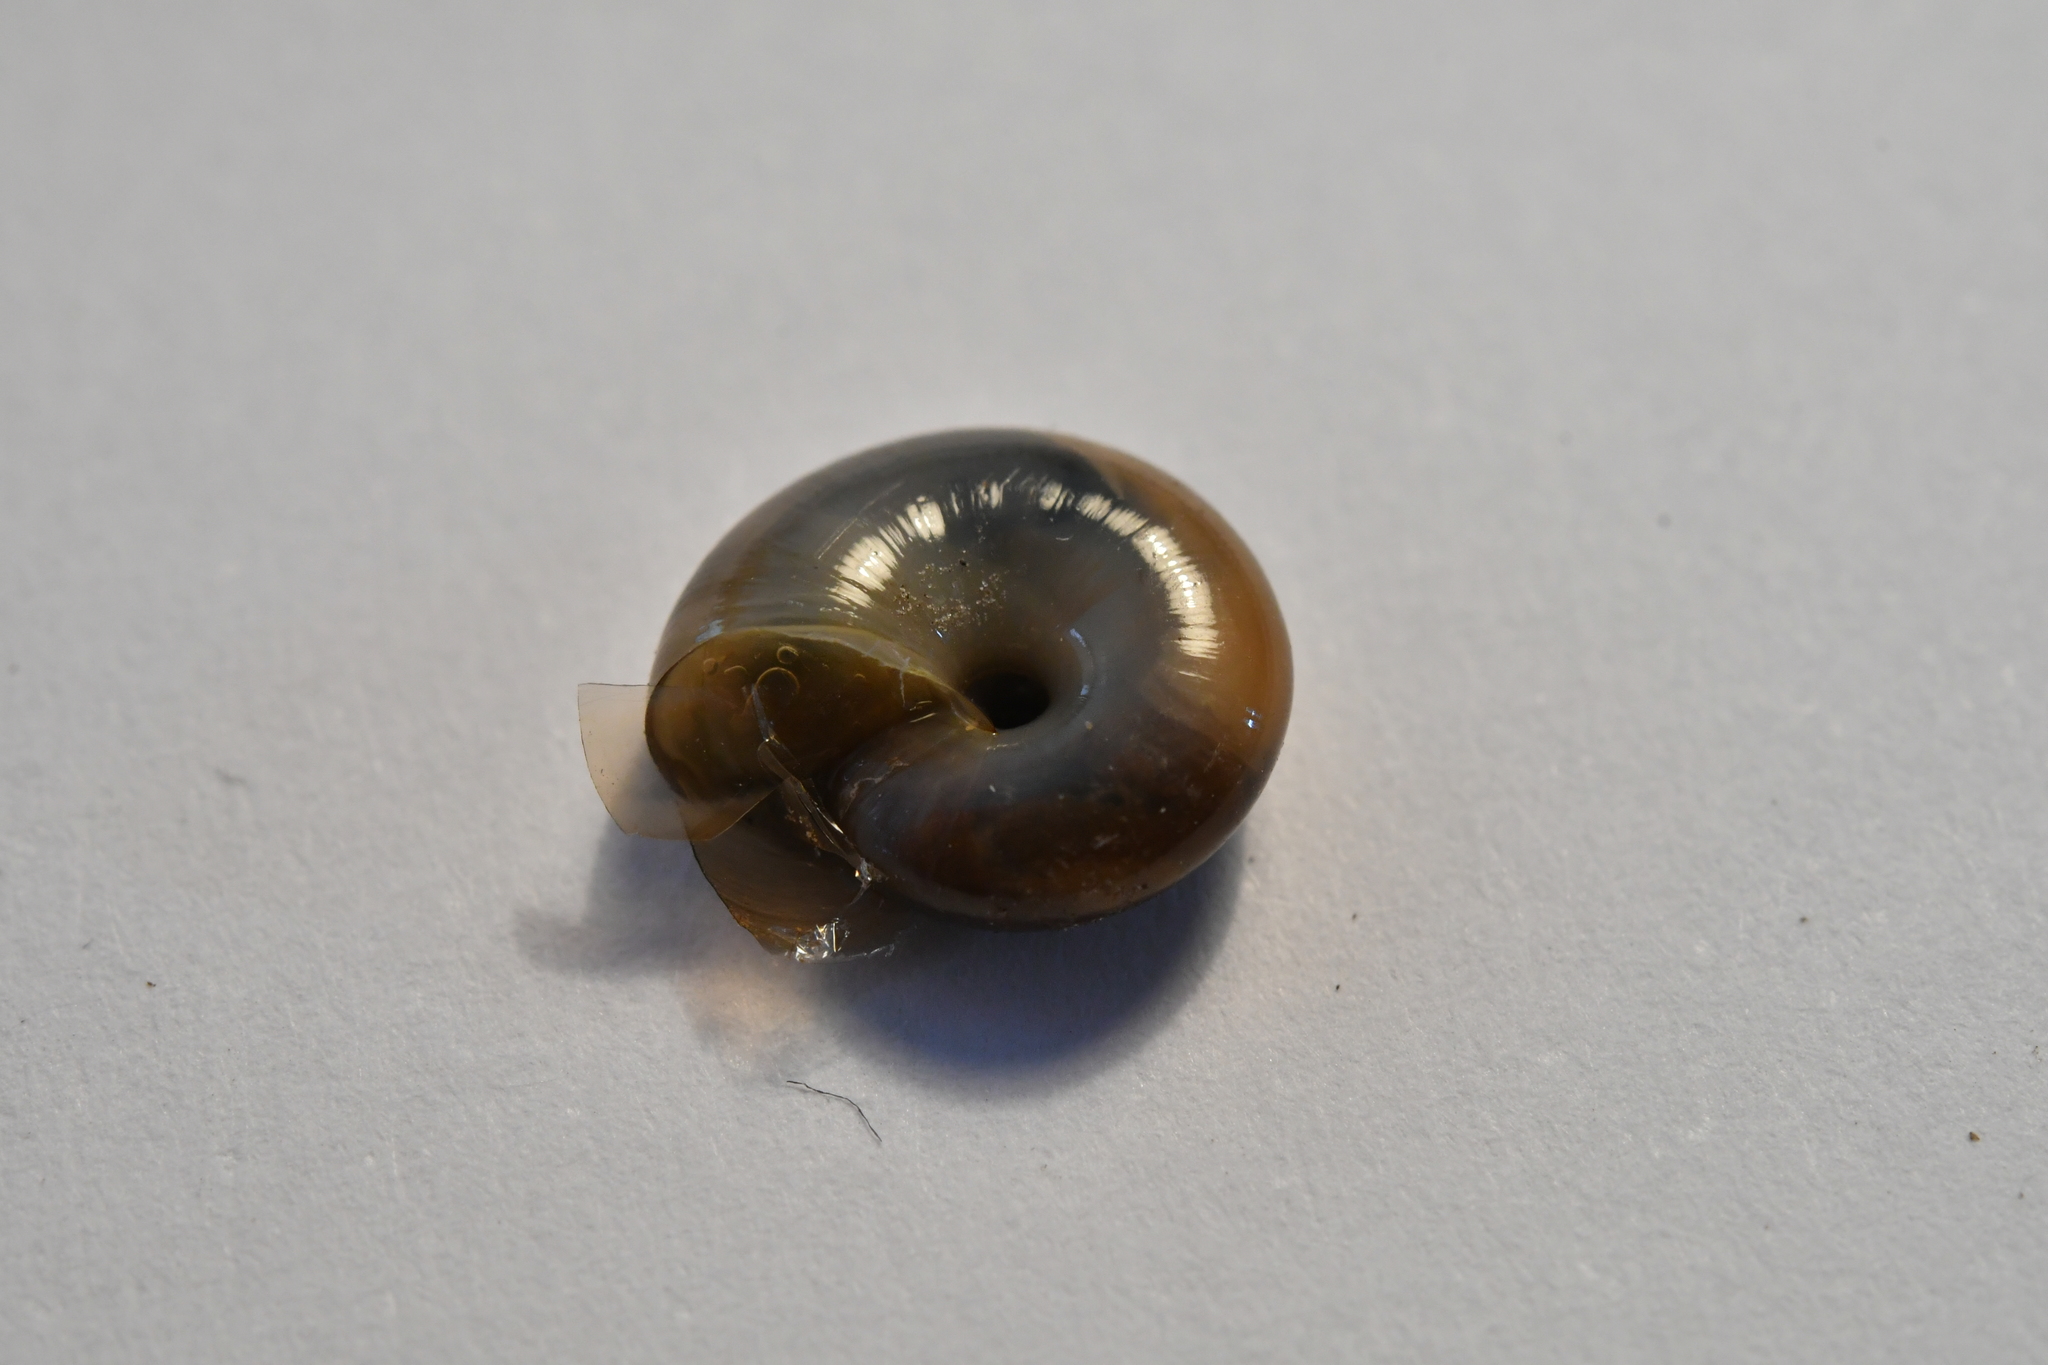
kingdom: Animalia
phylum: Mollusca
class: Gastropoda
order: Stylommatophora
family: Oxychilidae
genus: Oxychilus
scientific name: Oxychilus draparnaudi
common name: Draparnaud's glass snail
